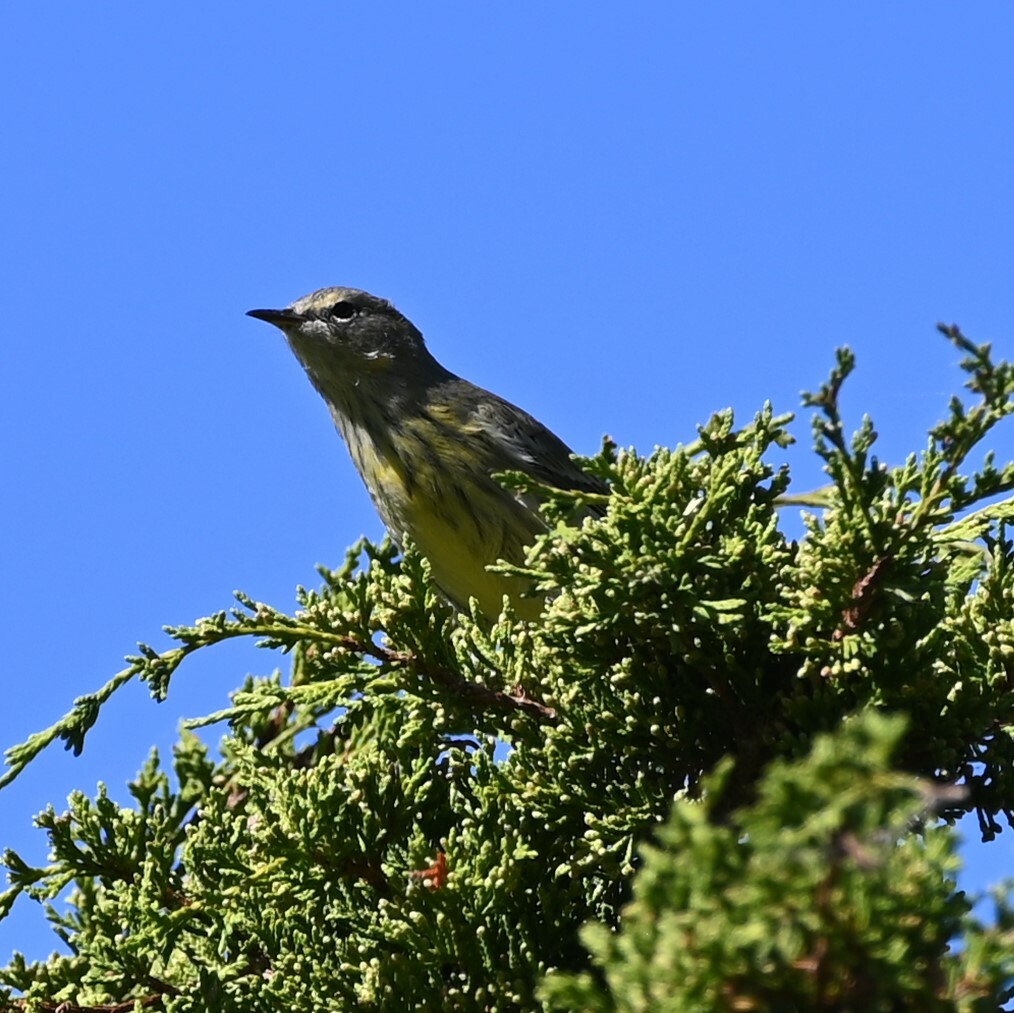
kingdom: Animalia
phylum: Chordata
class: Aves
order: Passeriformes
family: Parulidae
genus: Setophaga
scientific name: Setophaga tigrina
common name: Cape may warbler
